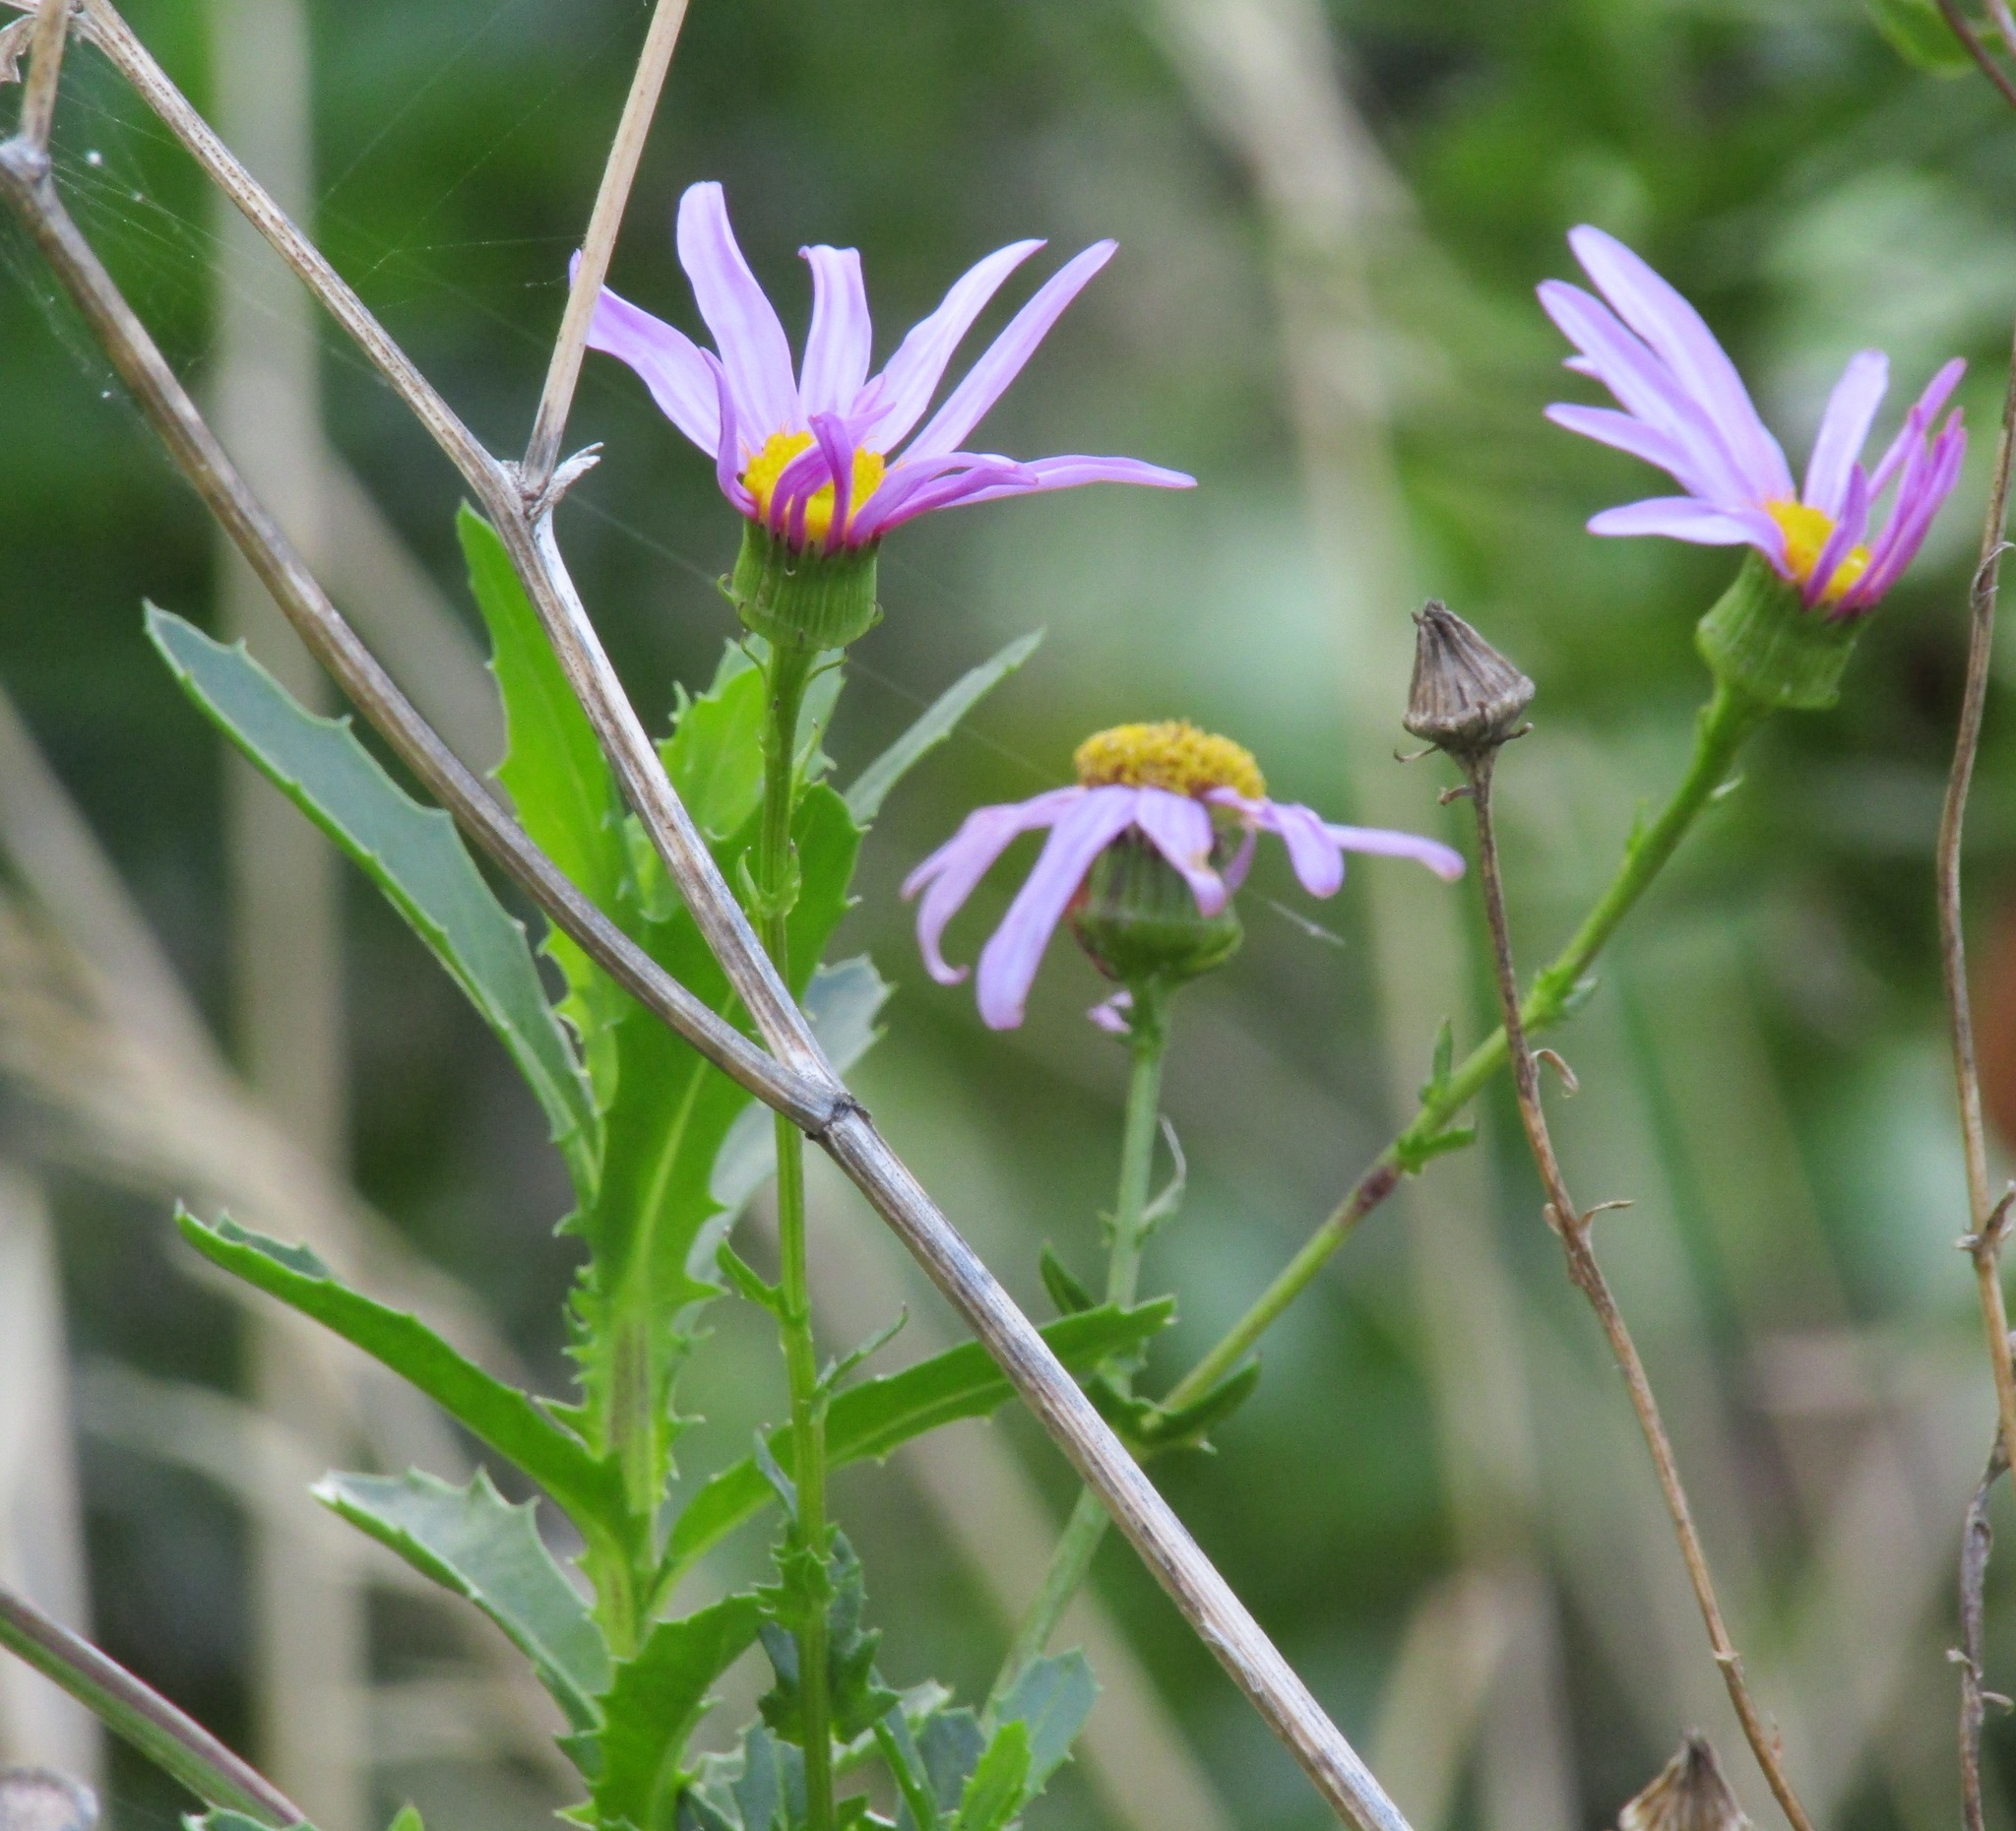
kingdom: Plantae
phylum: Tracheophyta
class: Magnoliopsida
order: Asterales
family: Asteraceae
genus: Senecio
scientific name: Senecio glastifolius
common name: Woad-leaved ragwort
